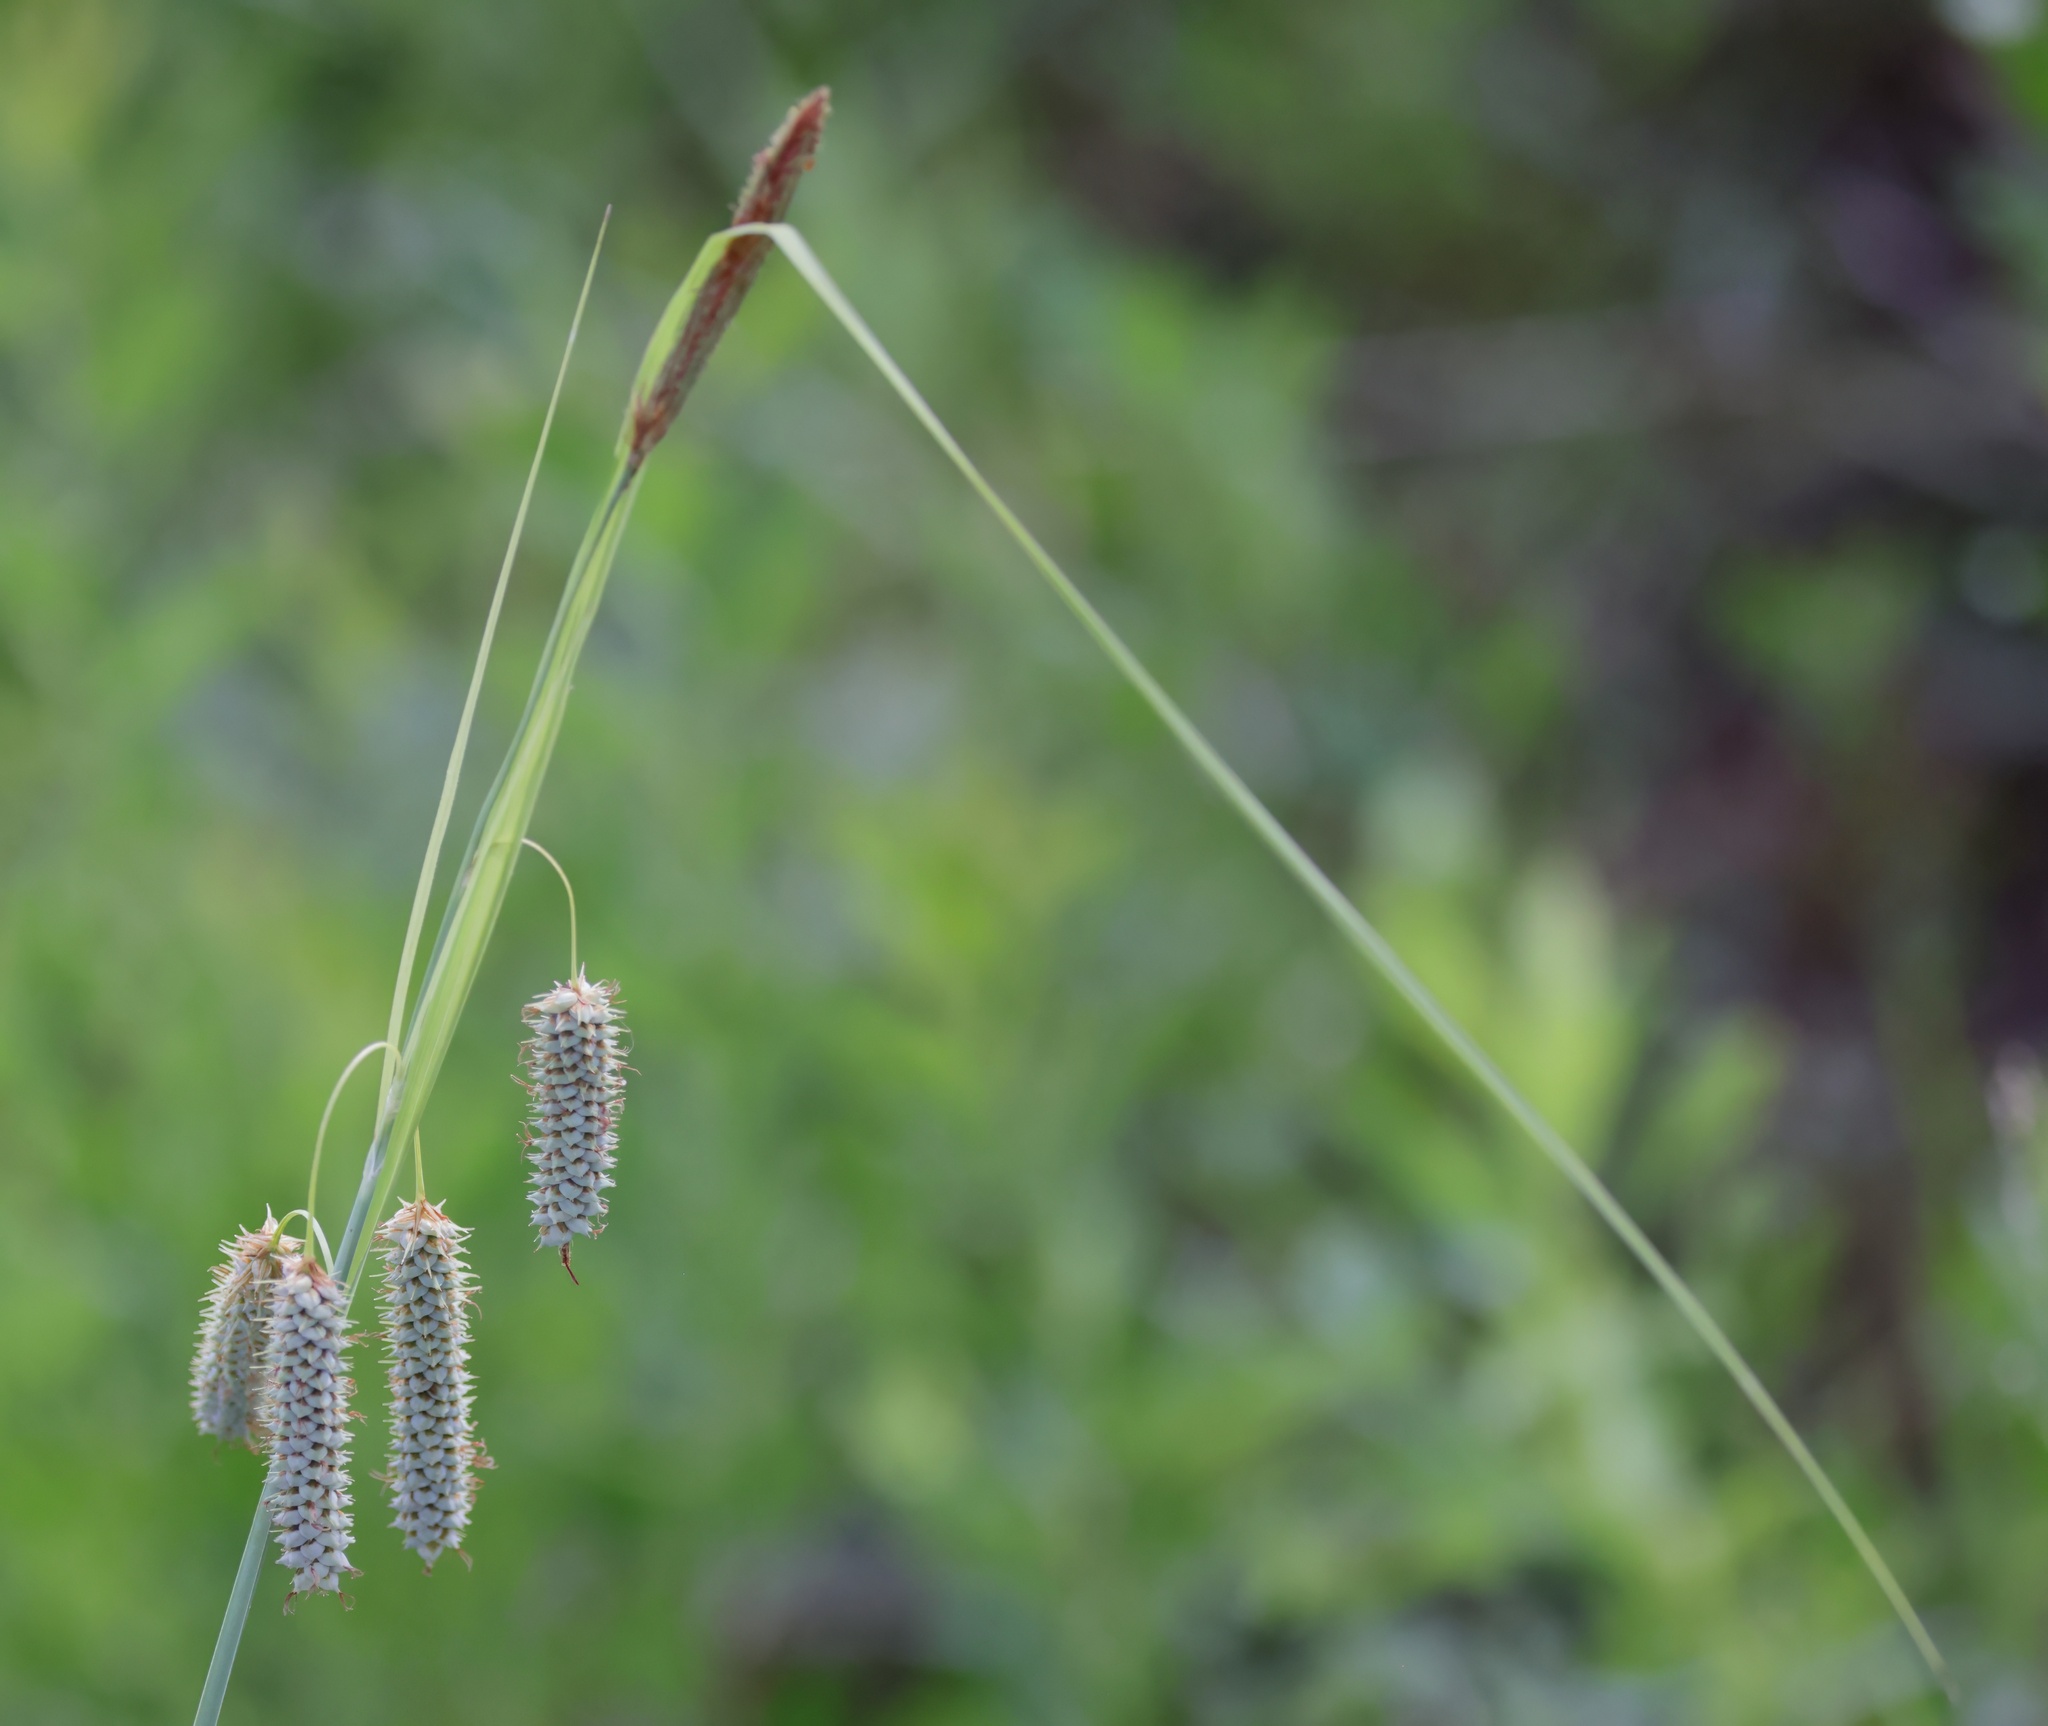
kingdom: Plantae
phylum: Tracheophyta
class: Liliopsida
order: Poales
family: Cyperaceae
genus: Carex
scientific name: Carex glaucescens
